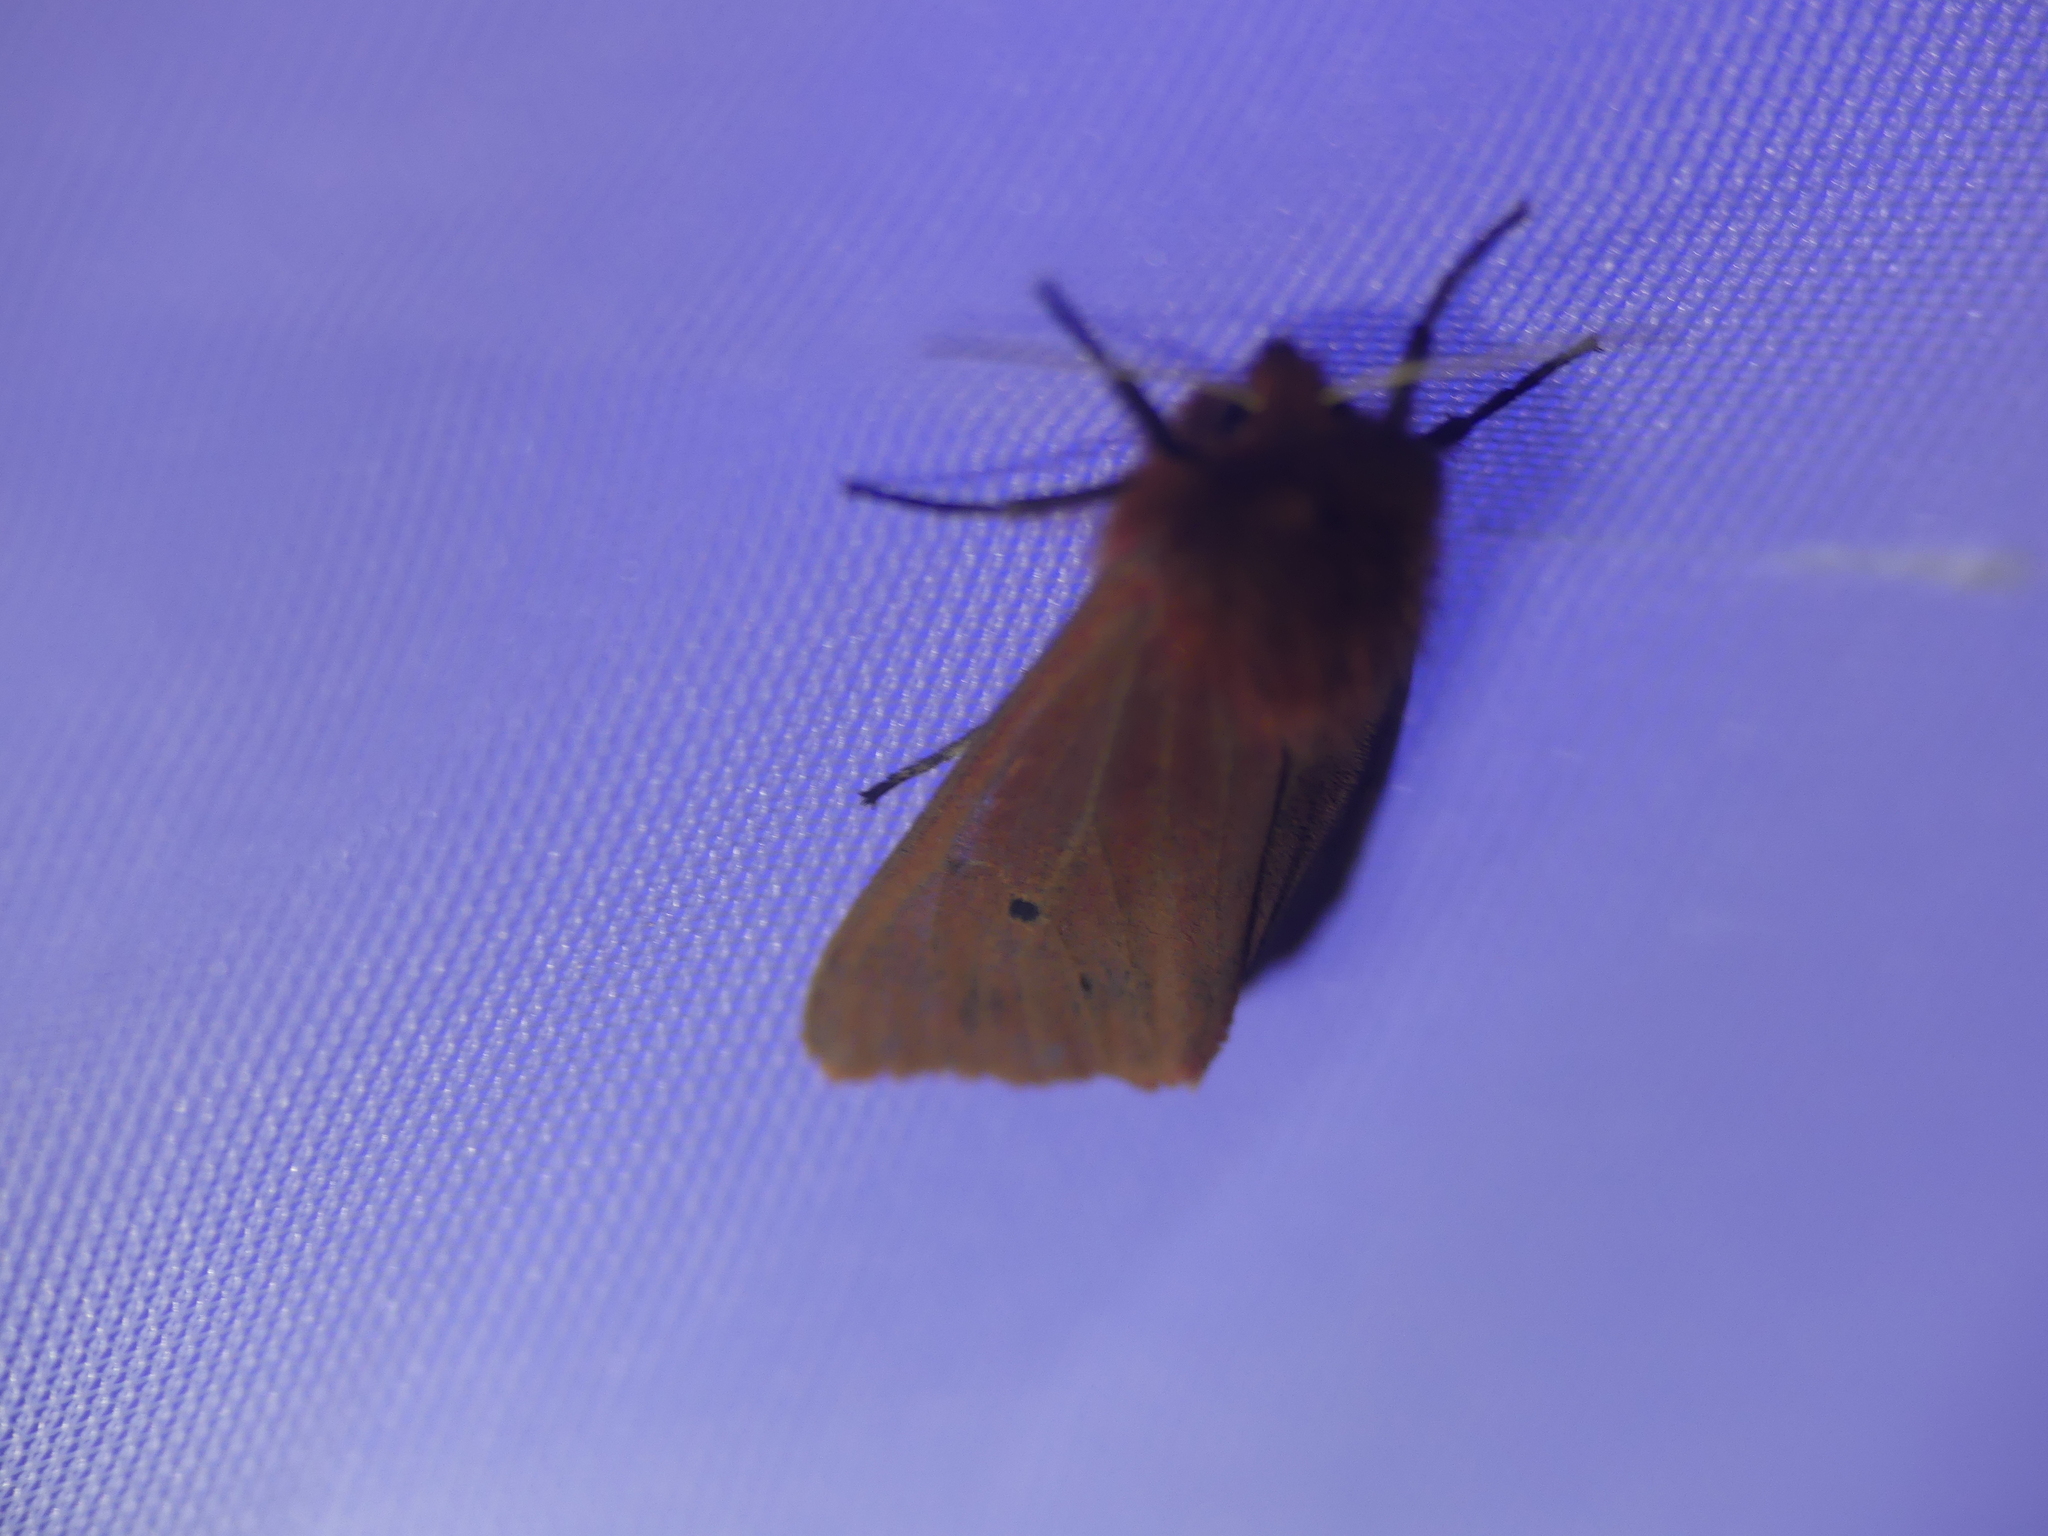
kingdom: Animalia
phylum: Arthropoda
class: Insecta
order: Lepidoptera
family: Erebidae
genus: Phragmatobia
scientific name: Phragmatobia fuliginosa
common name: Ruby tiger
